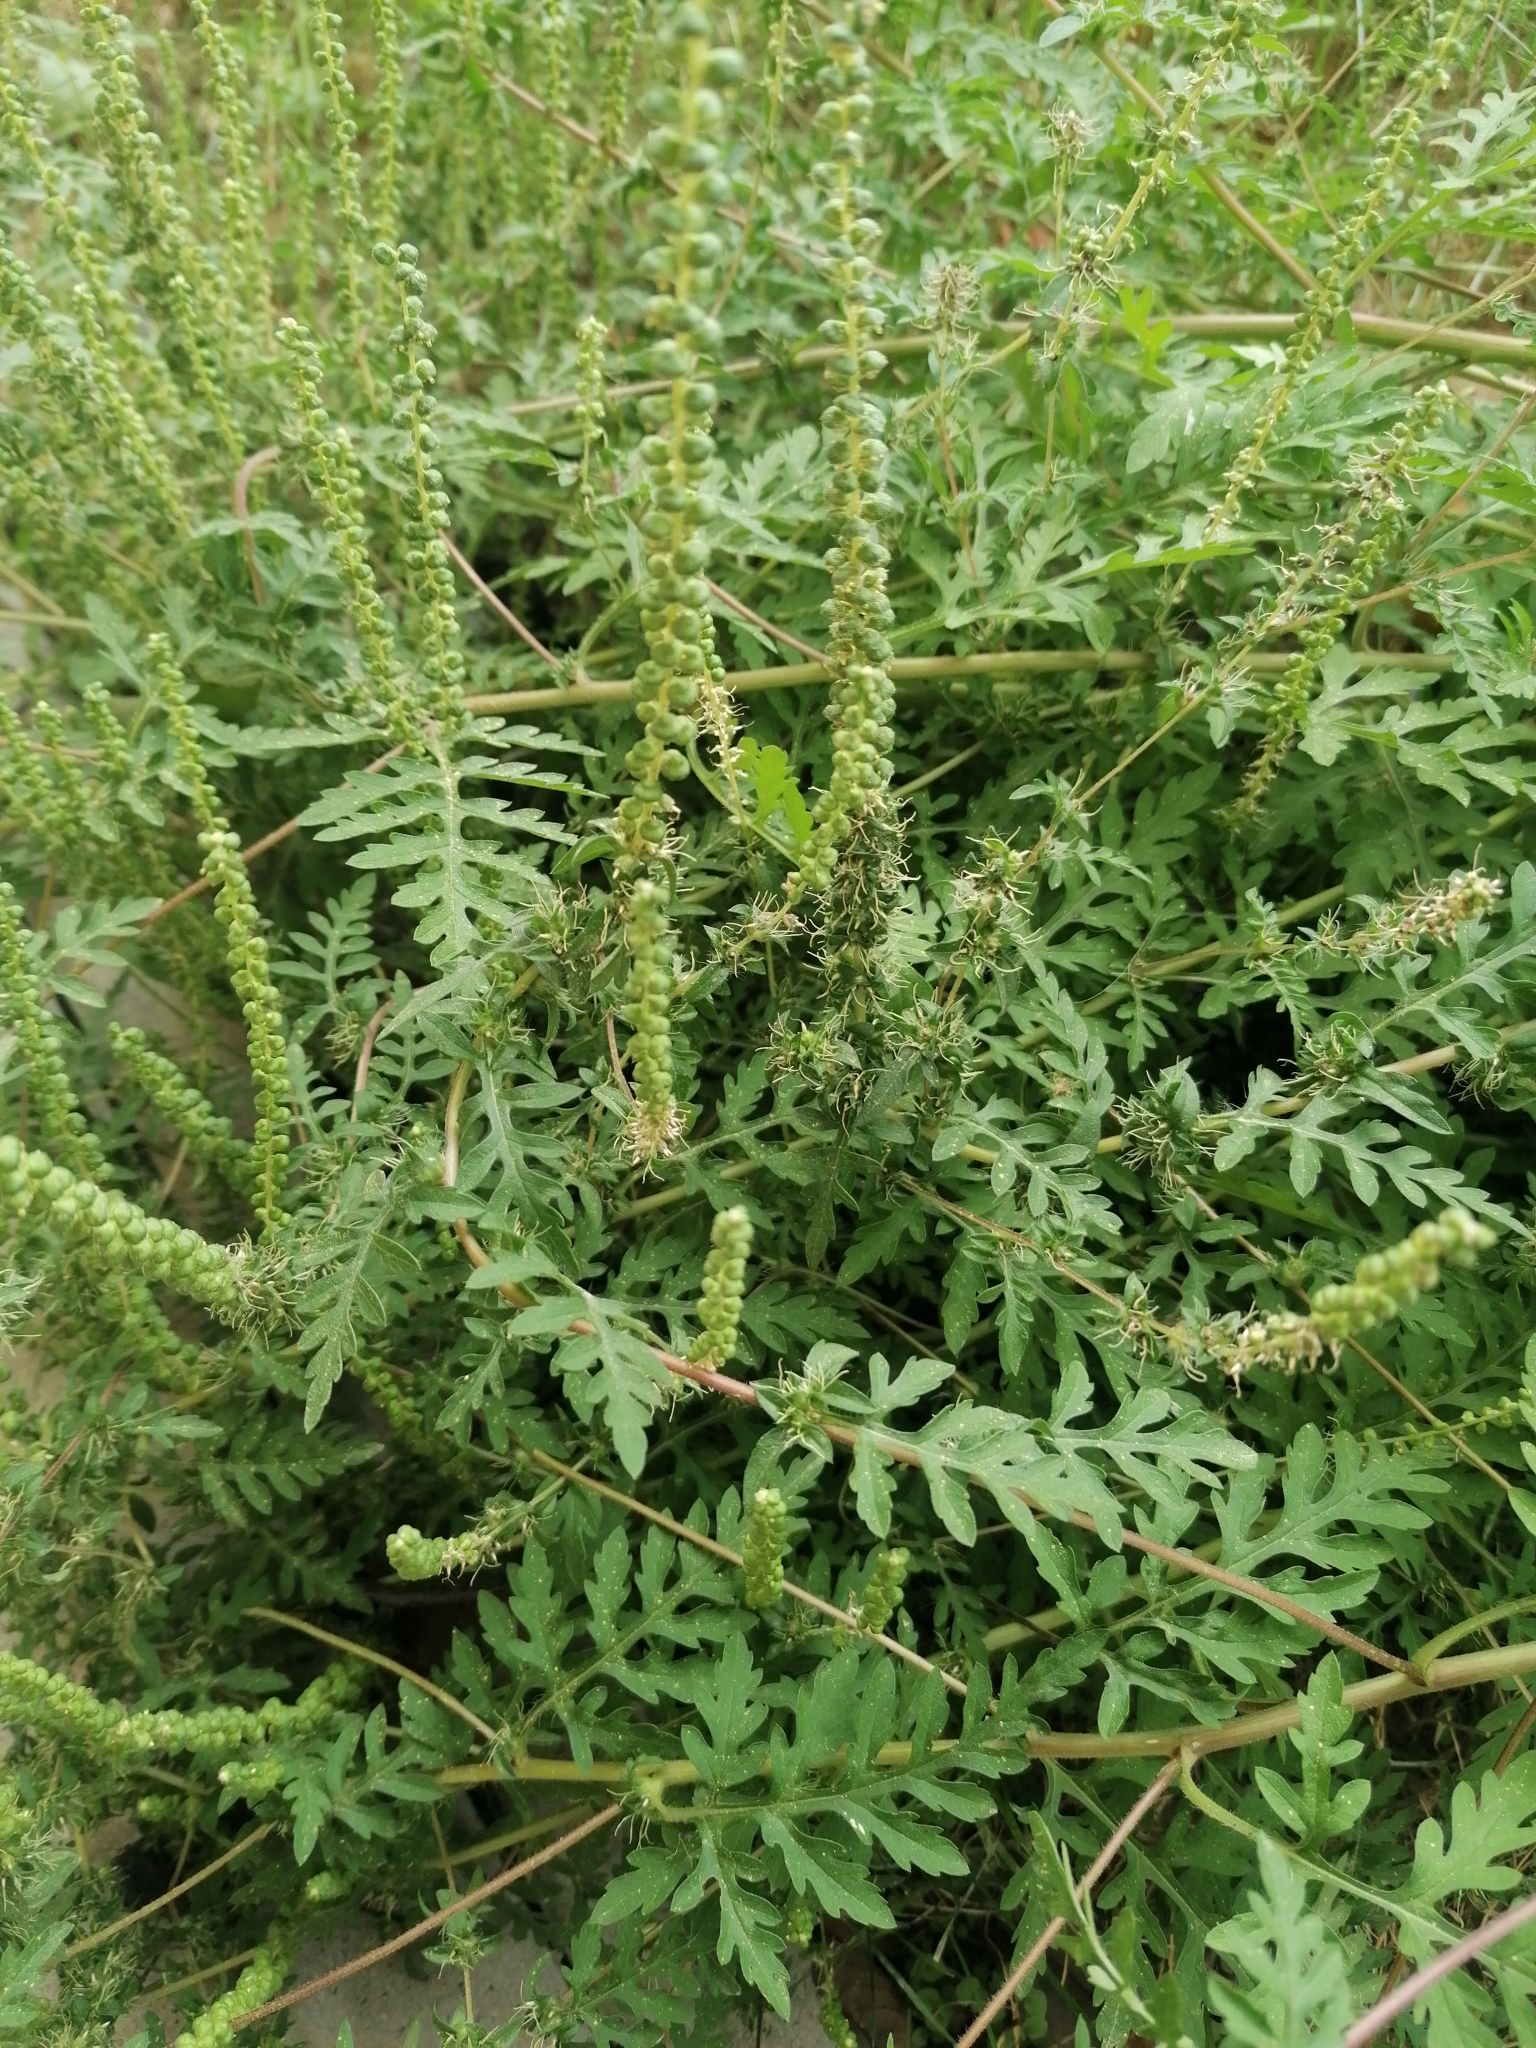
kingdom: Plantae
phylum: Tracheophyta
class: Magnoliopsida
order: Asterales
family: Asteraceae
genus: Ambrosia
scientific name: Ambrosia artemisiifolia
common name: Annual ragweed
